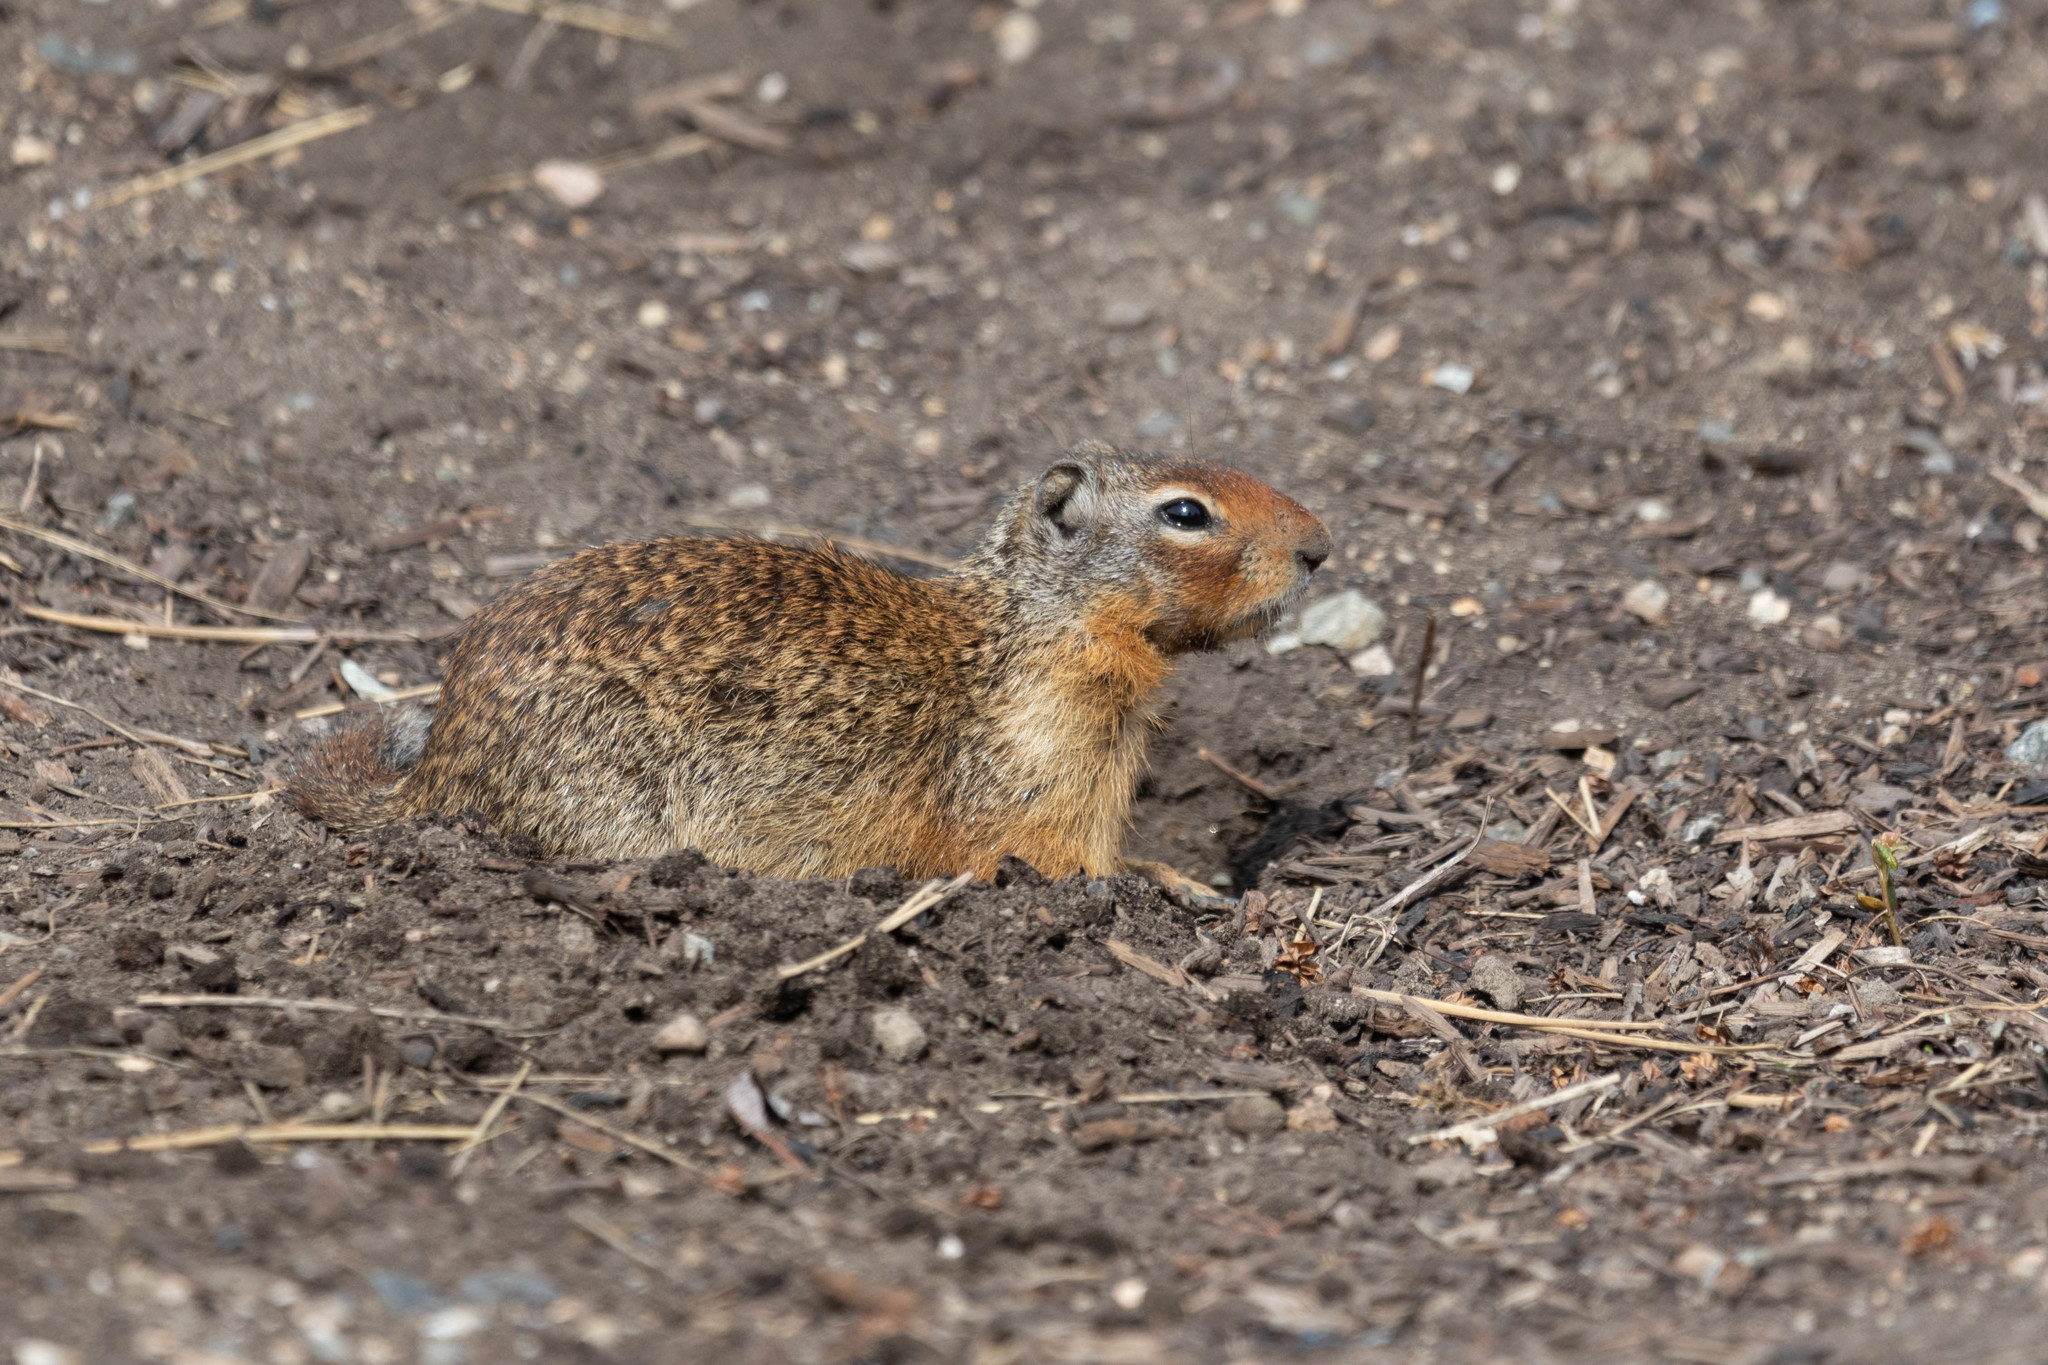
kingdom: Animalia
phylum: Chordata
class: Mammalia
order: Rodentia
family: Sciuridae
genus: Urocitellus
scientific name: Urocitellus columbianus
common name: Columbian ground squirrel
